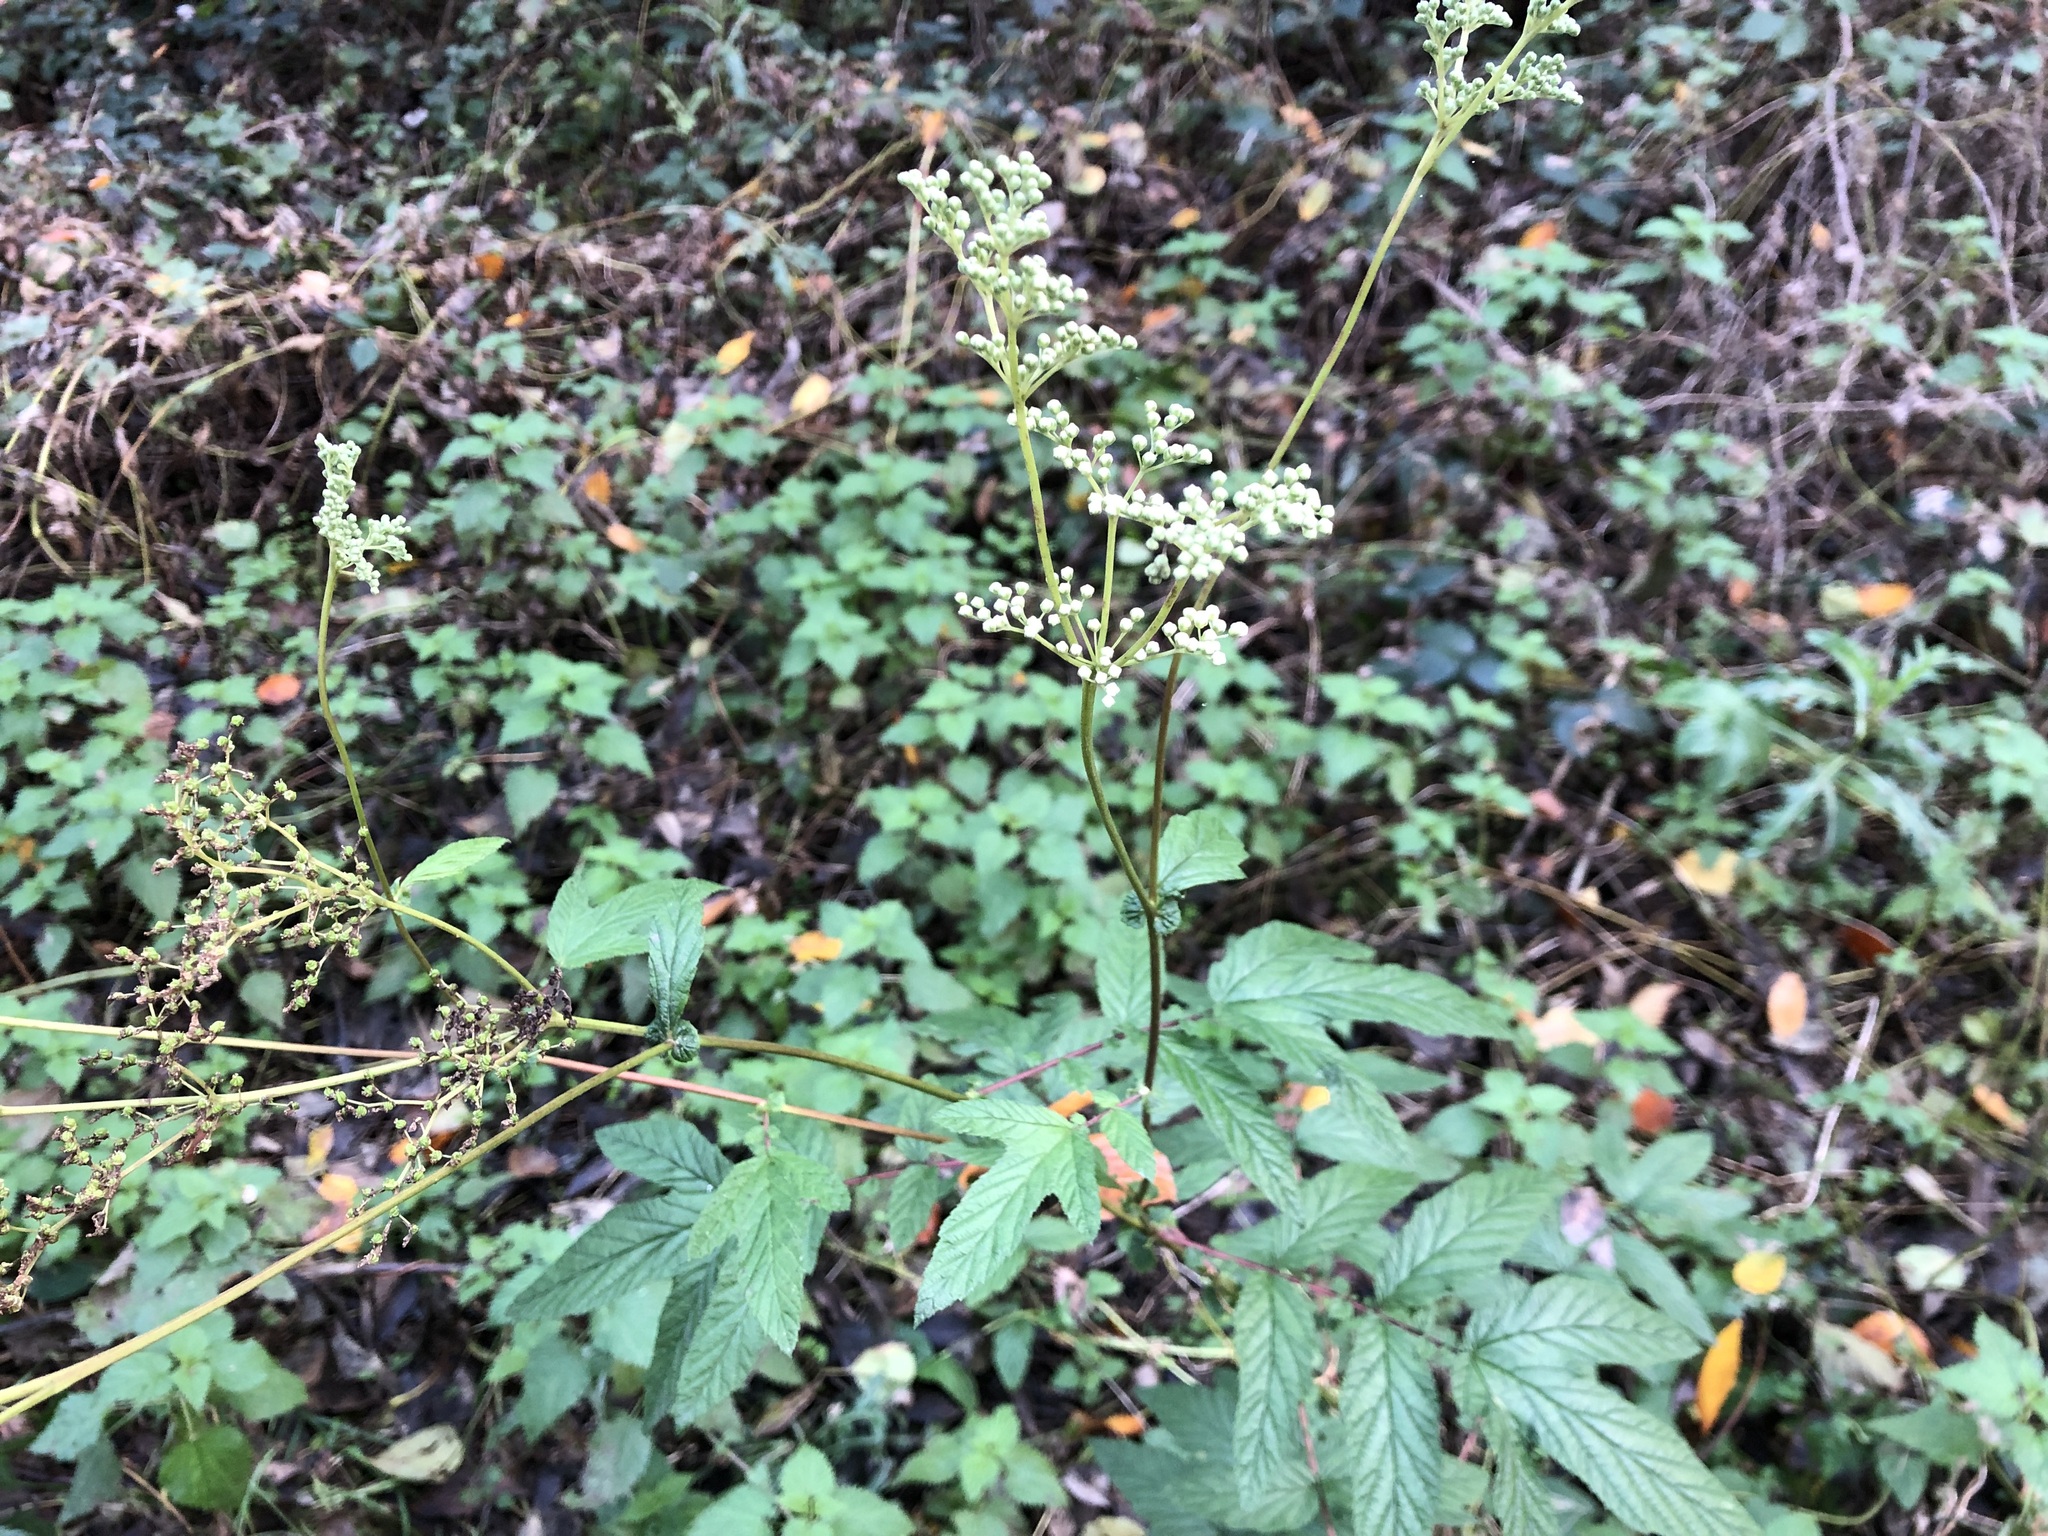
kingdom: Plantae
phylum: Tracheophyta
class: Magnoliopsida
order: Rosales
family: Rosaceae
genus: Filipendula
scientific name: Filipendula ulmaria
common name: Meadowsweet
